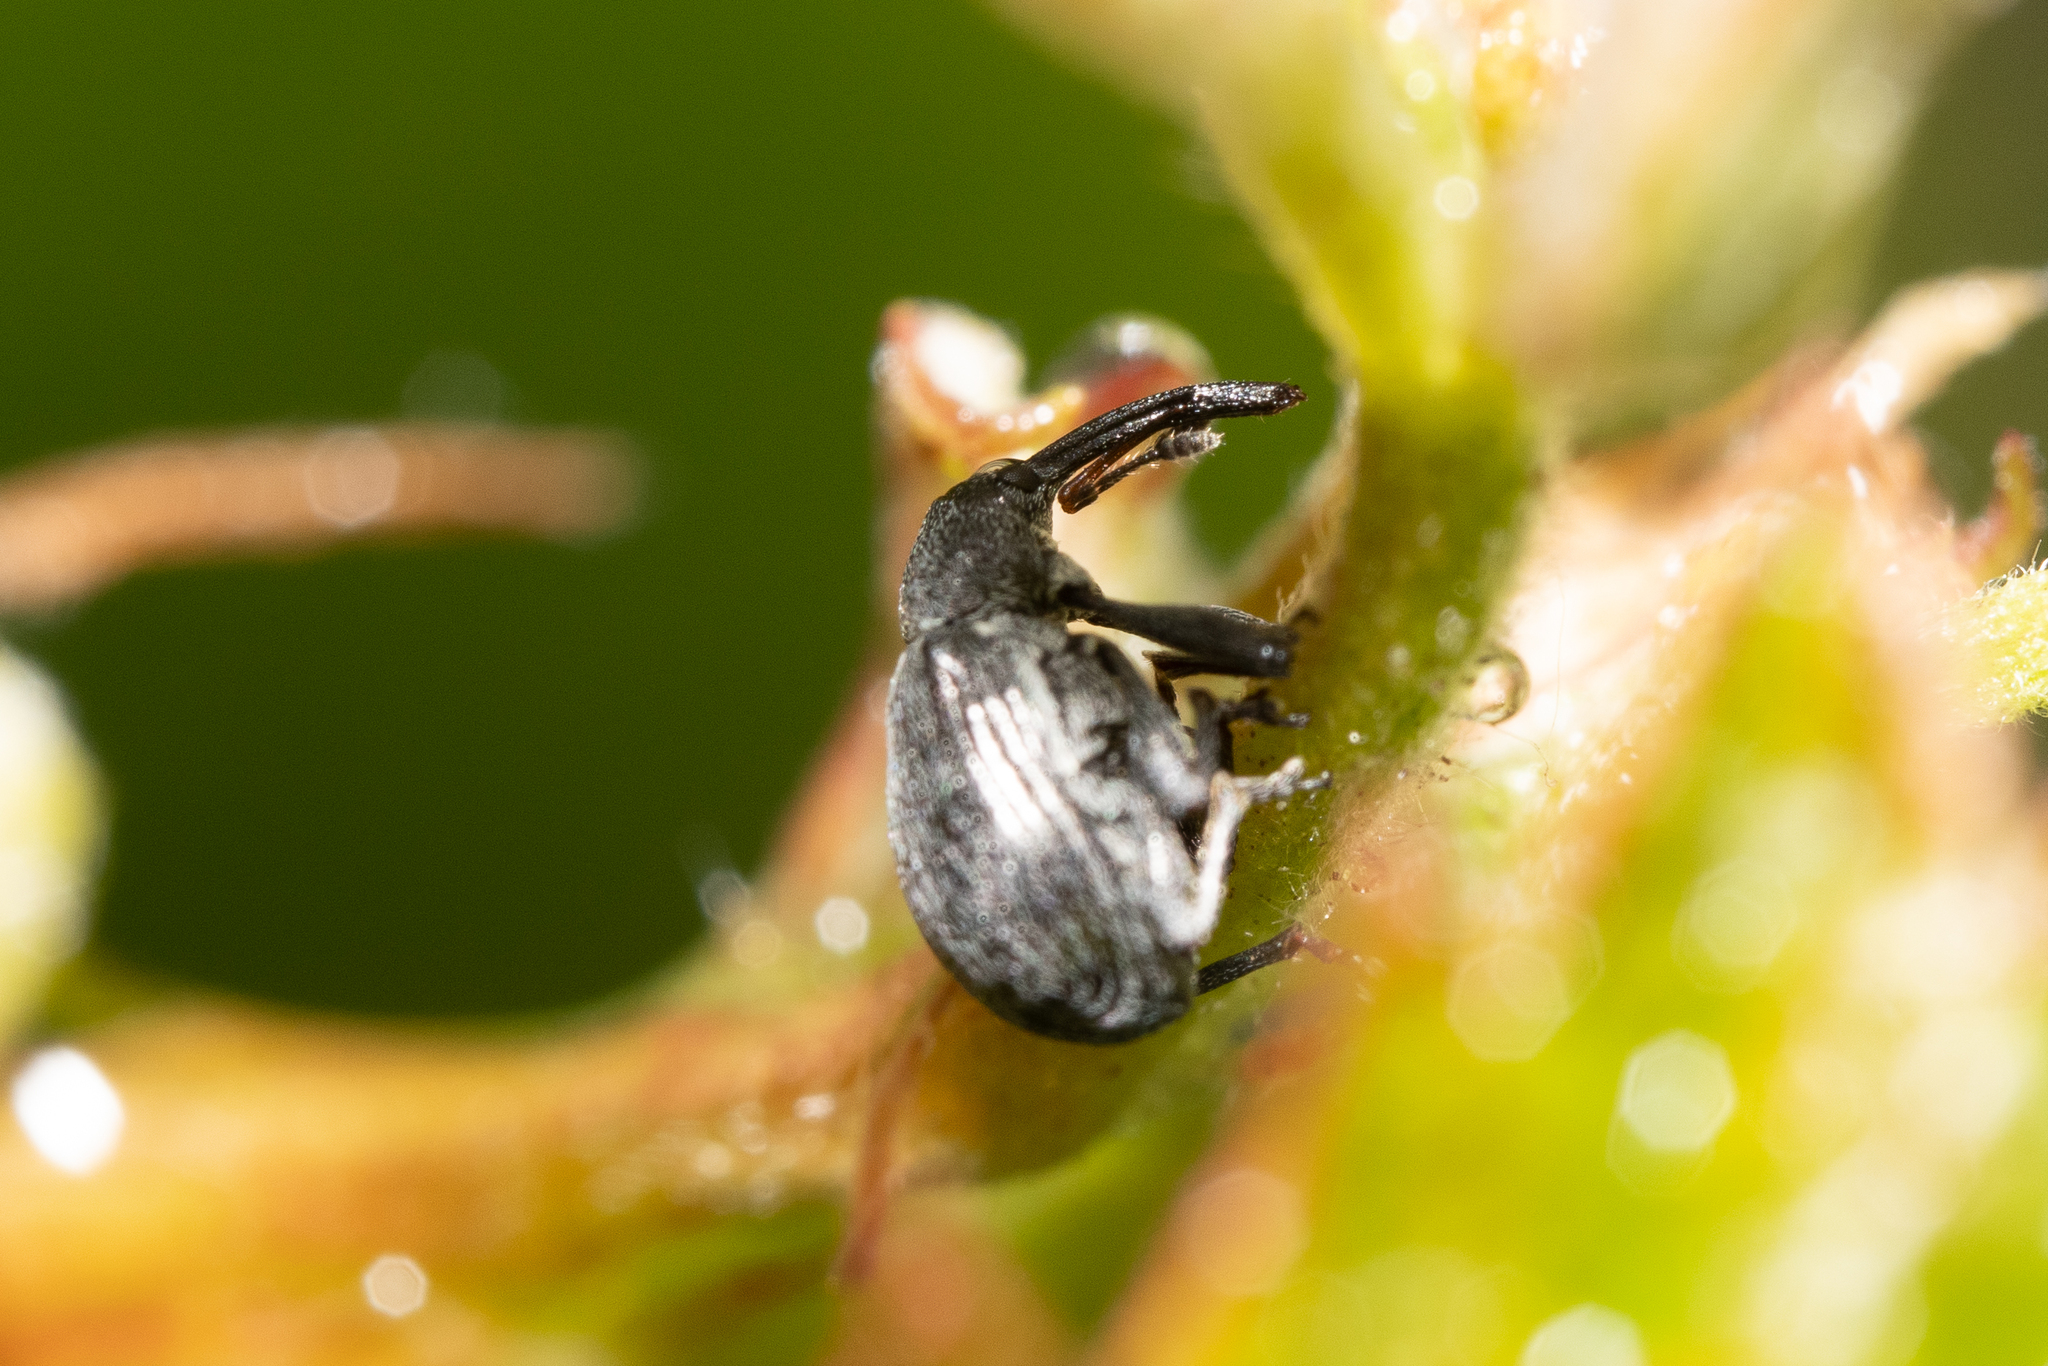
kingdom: Animalia
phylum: Arthropoda
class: Insecta
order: Coleoptera
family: Curculionidae
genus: Anthonomus
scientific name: Anthonomus rubi
